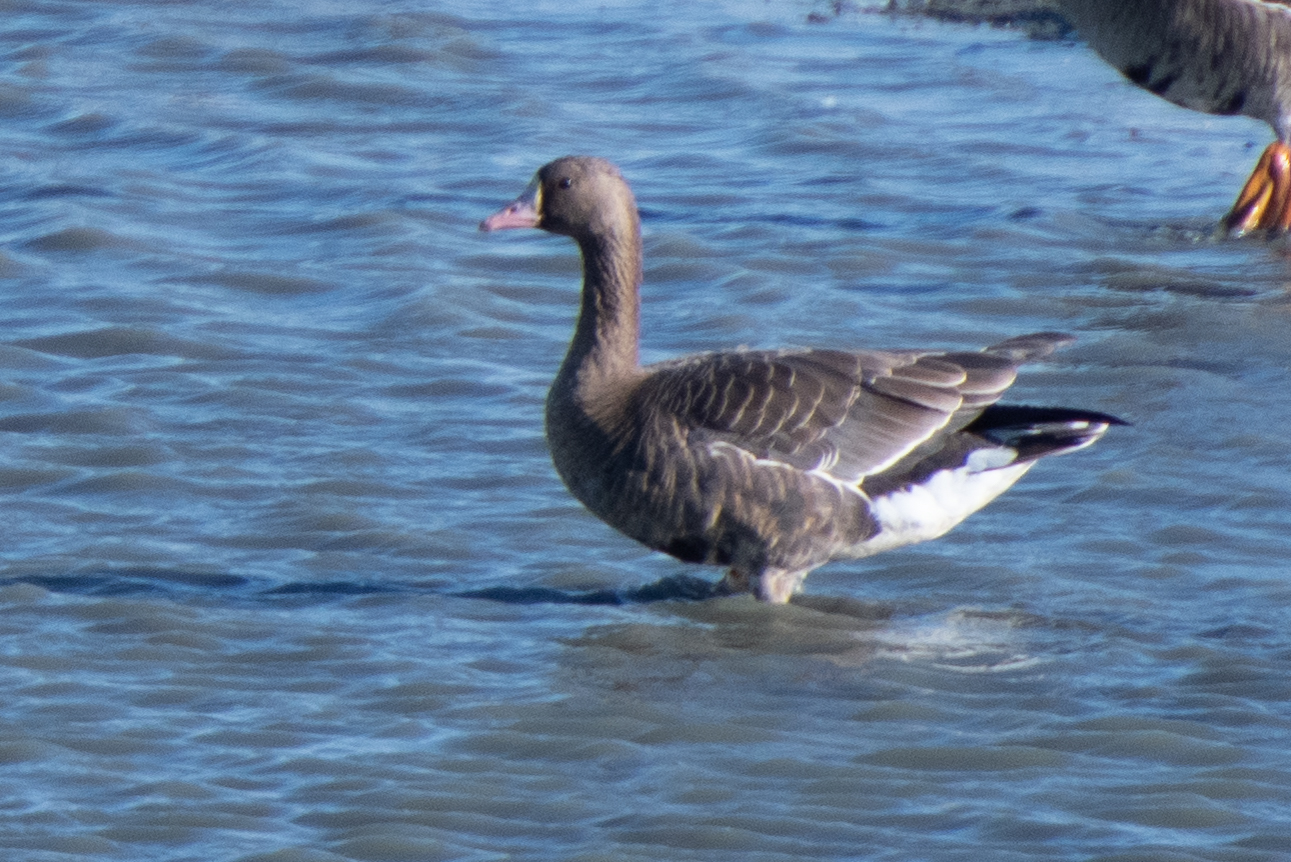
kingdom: Animalia
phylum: Chordata
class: Aves
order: Anseriformes
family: Anatidae
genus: Anser
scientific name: Anser albifrons
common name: Greater white-fronted goose
